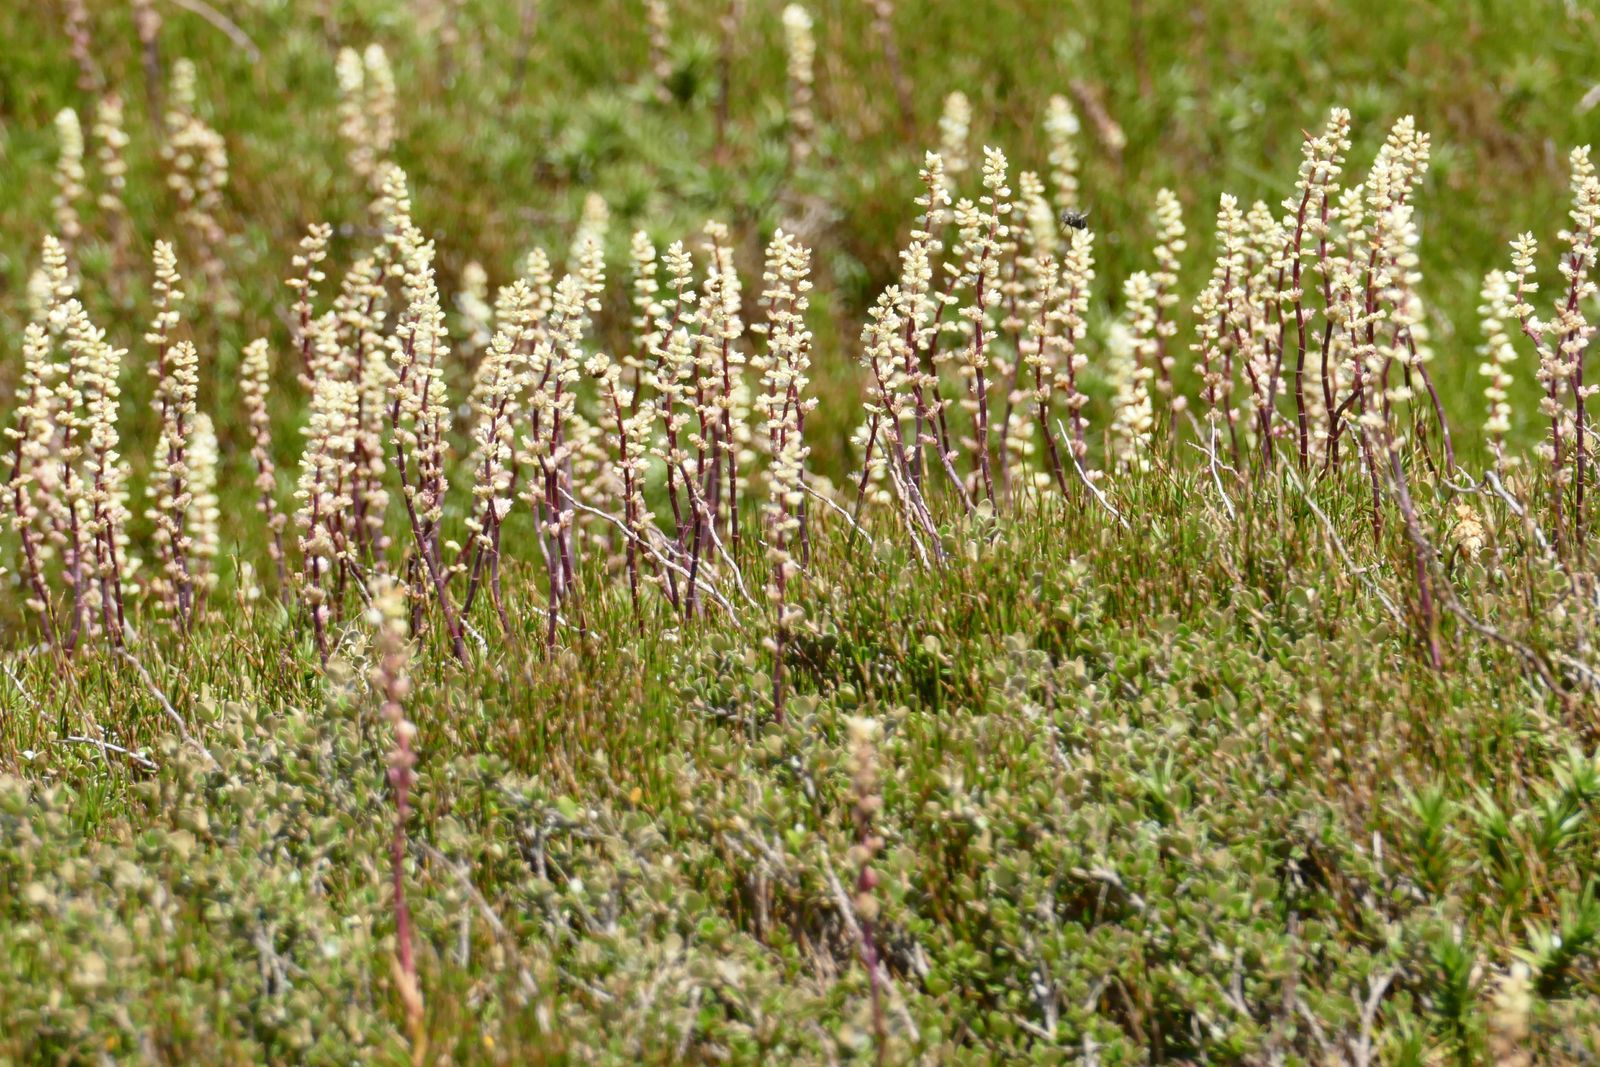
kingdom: Plantae
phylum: Tracheophyta
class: Magnoliopsida
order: Ericales
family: Ericaceae
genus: Dracophyllum
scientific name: Dracophyllum continentis
